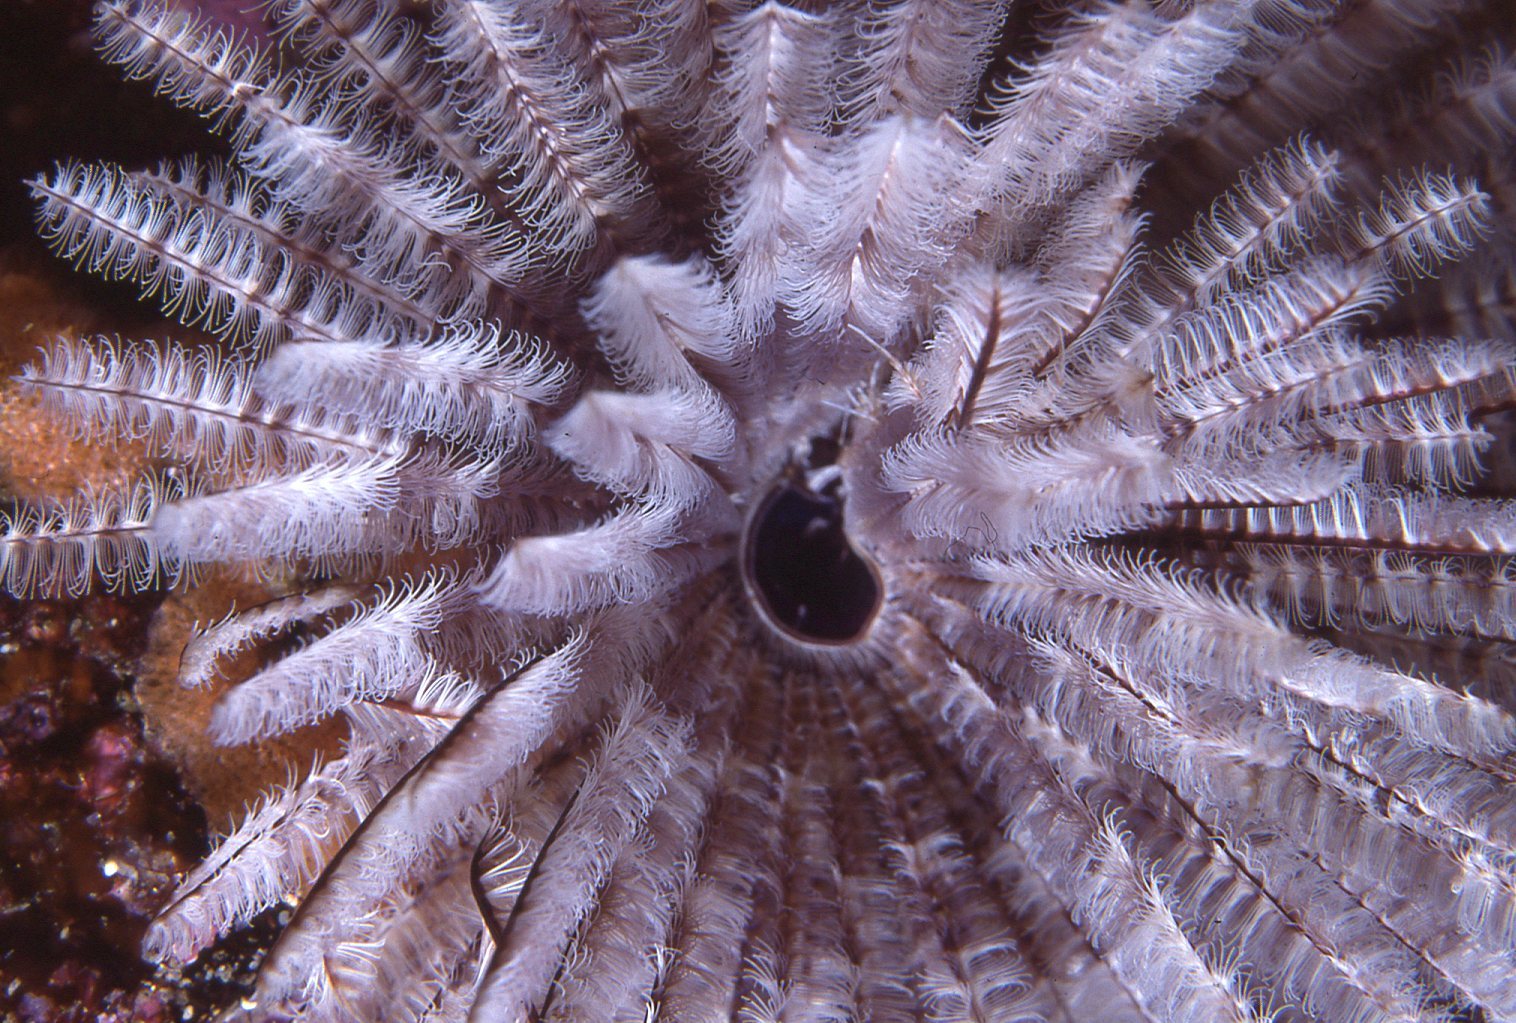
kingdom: Animalia
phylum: Annelida
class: Polychaeta
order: Sabellida
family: Sabellidae
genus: Sabellastarte
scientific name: Sabellastarte australiensis
